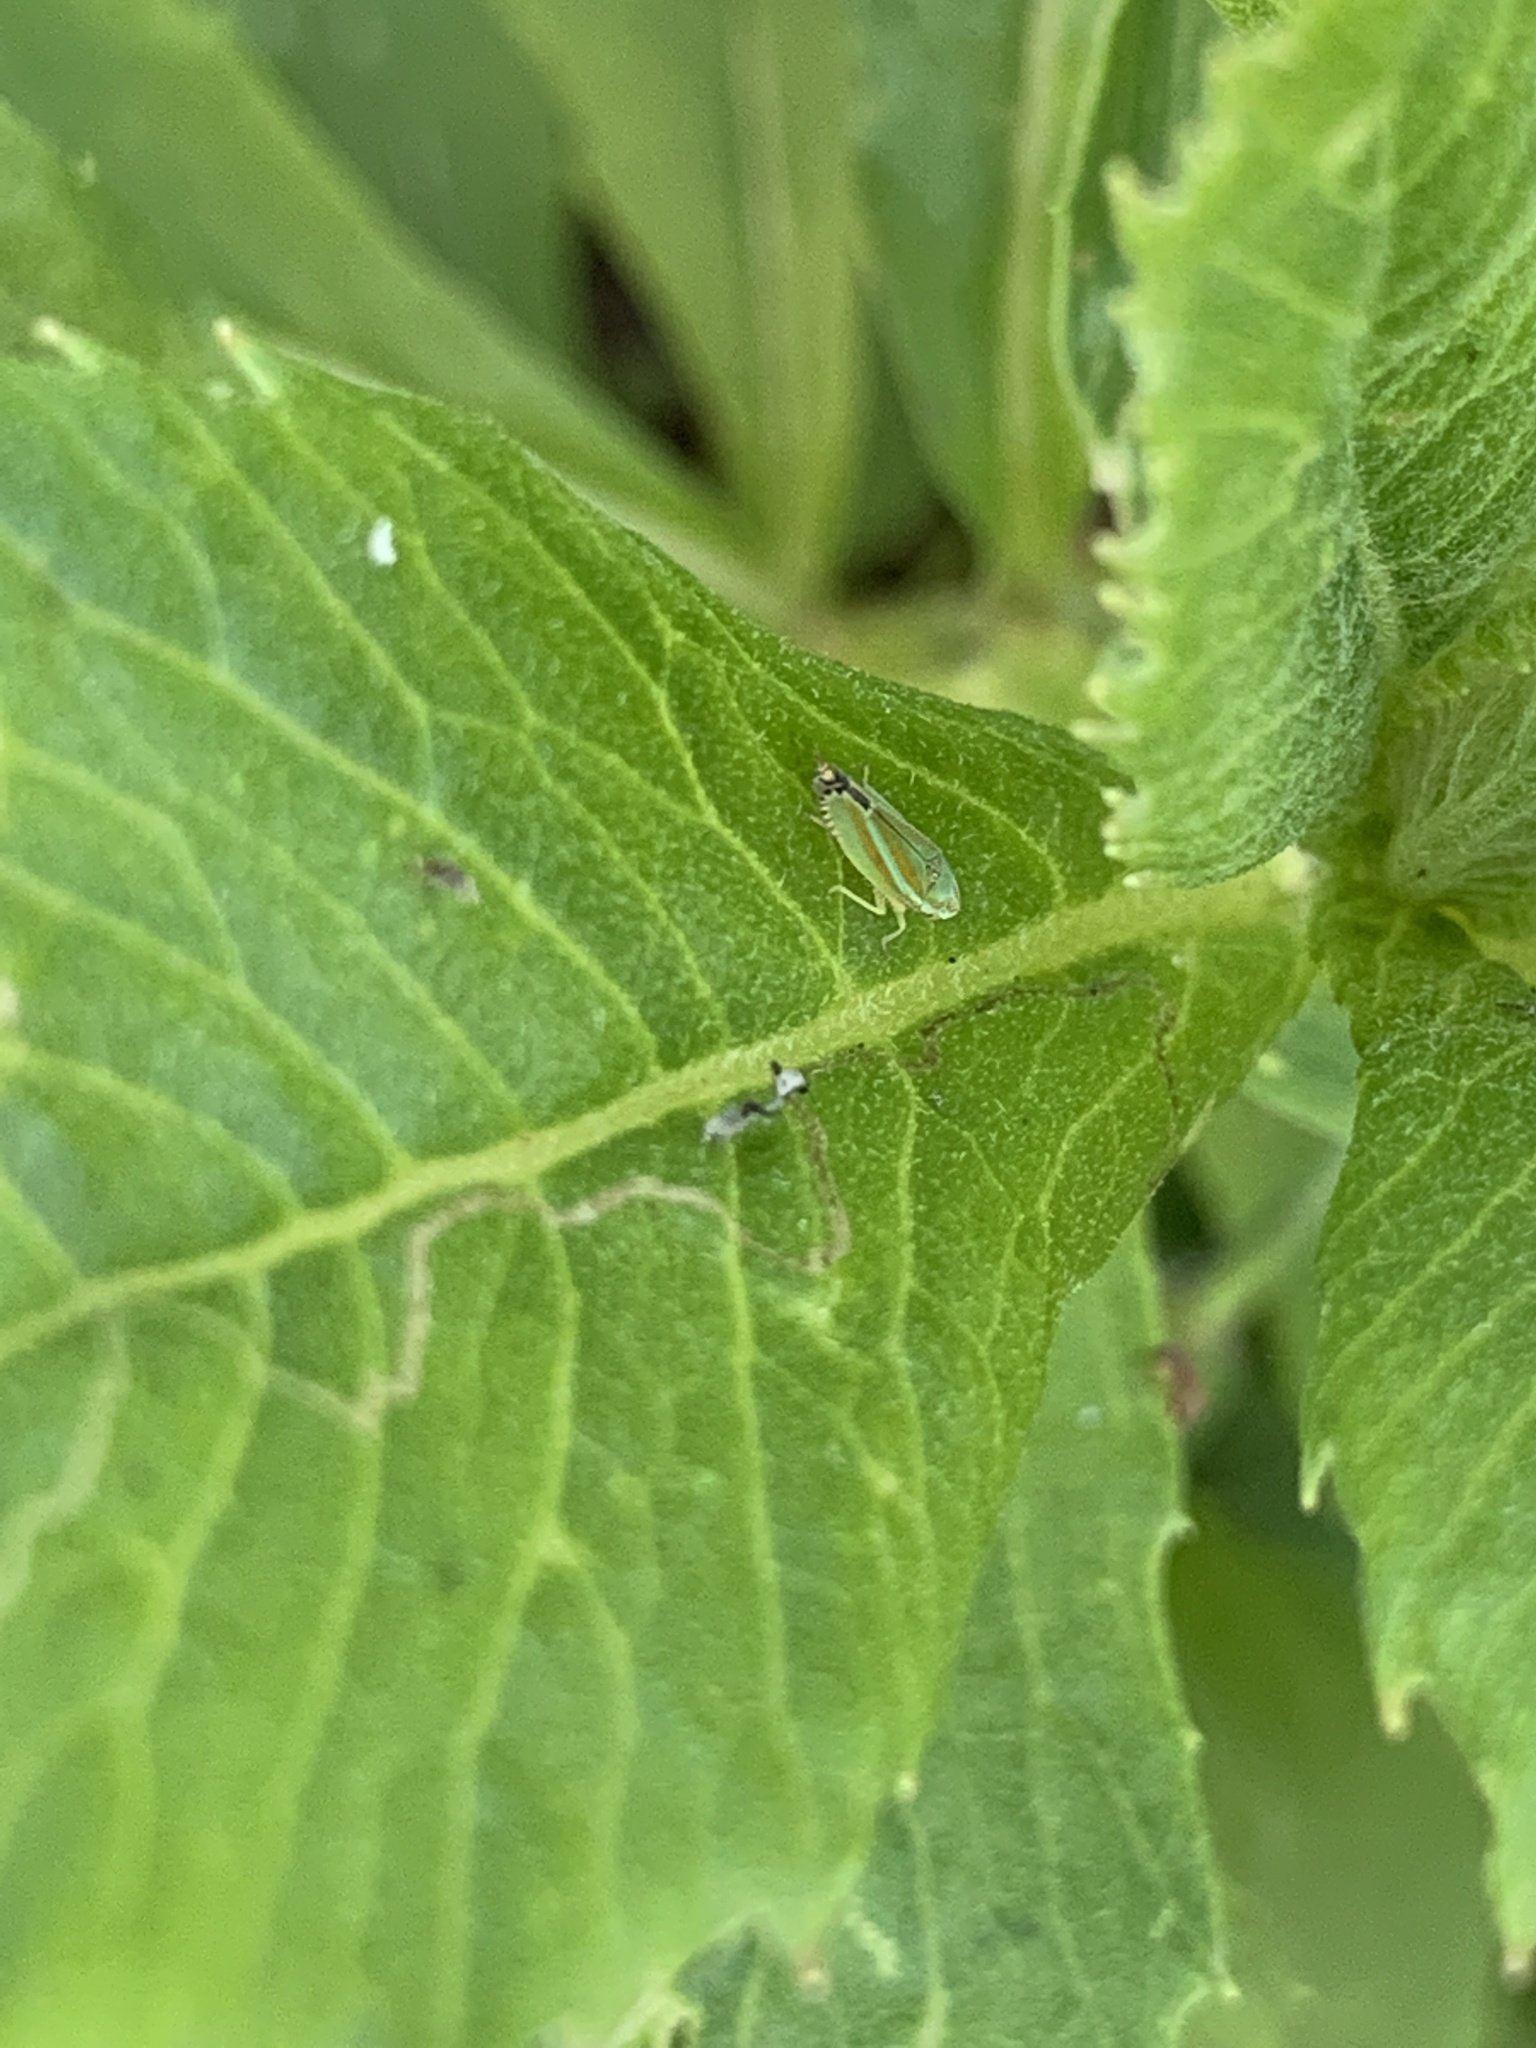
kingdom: Animalia
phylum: Arthropoda
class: Insecta
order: Hemiptera
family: Cicadellidae
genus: Graphocephala
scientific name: Graphocephala versuta
